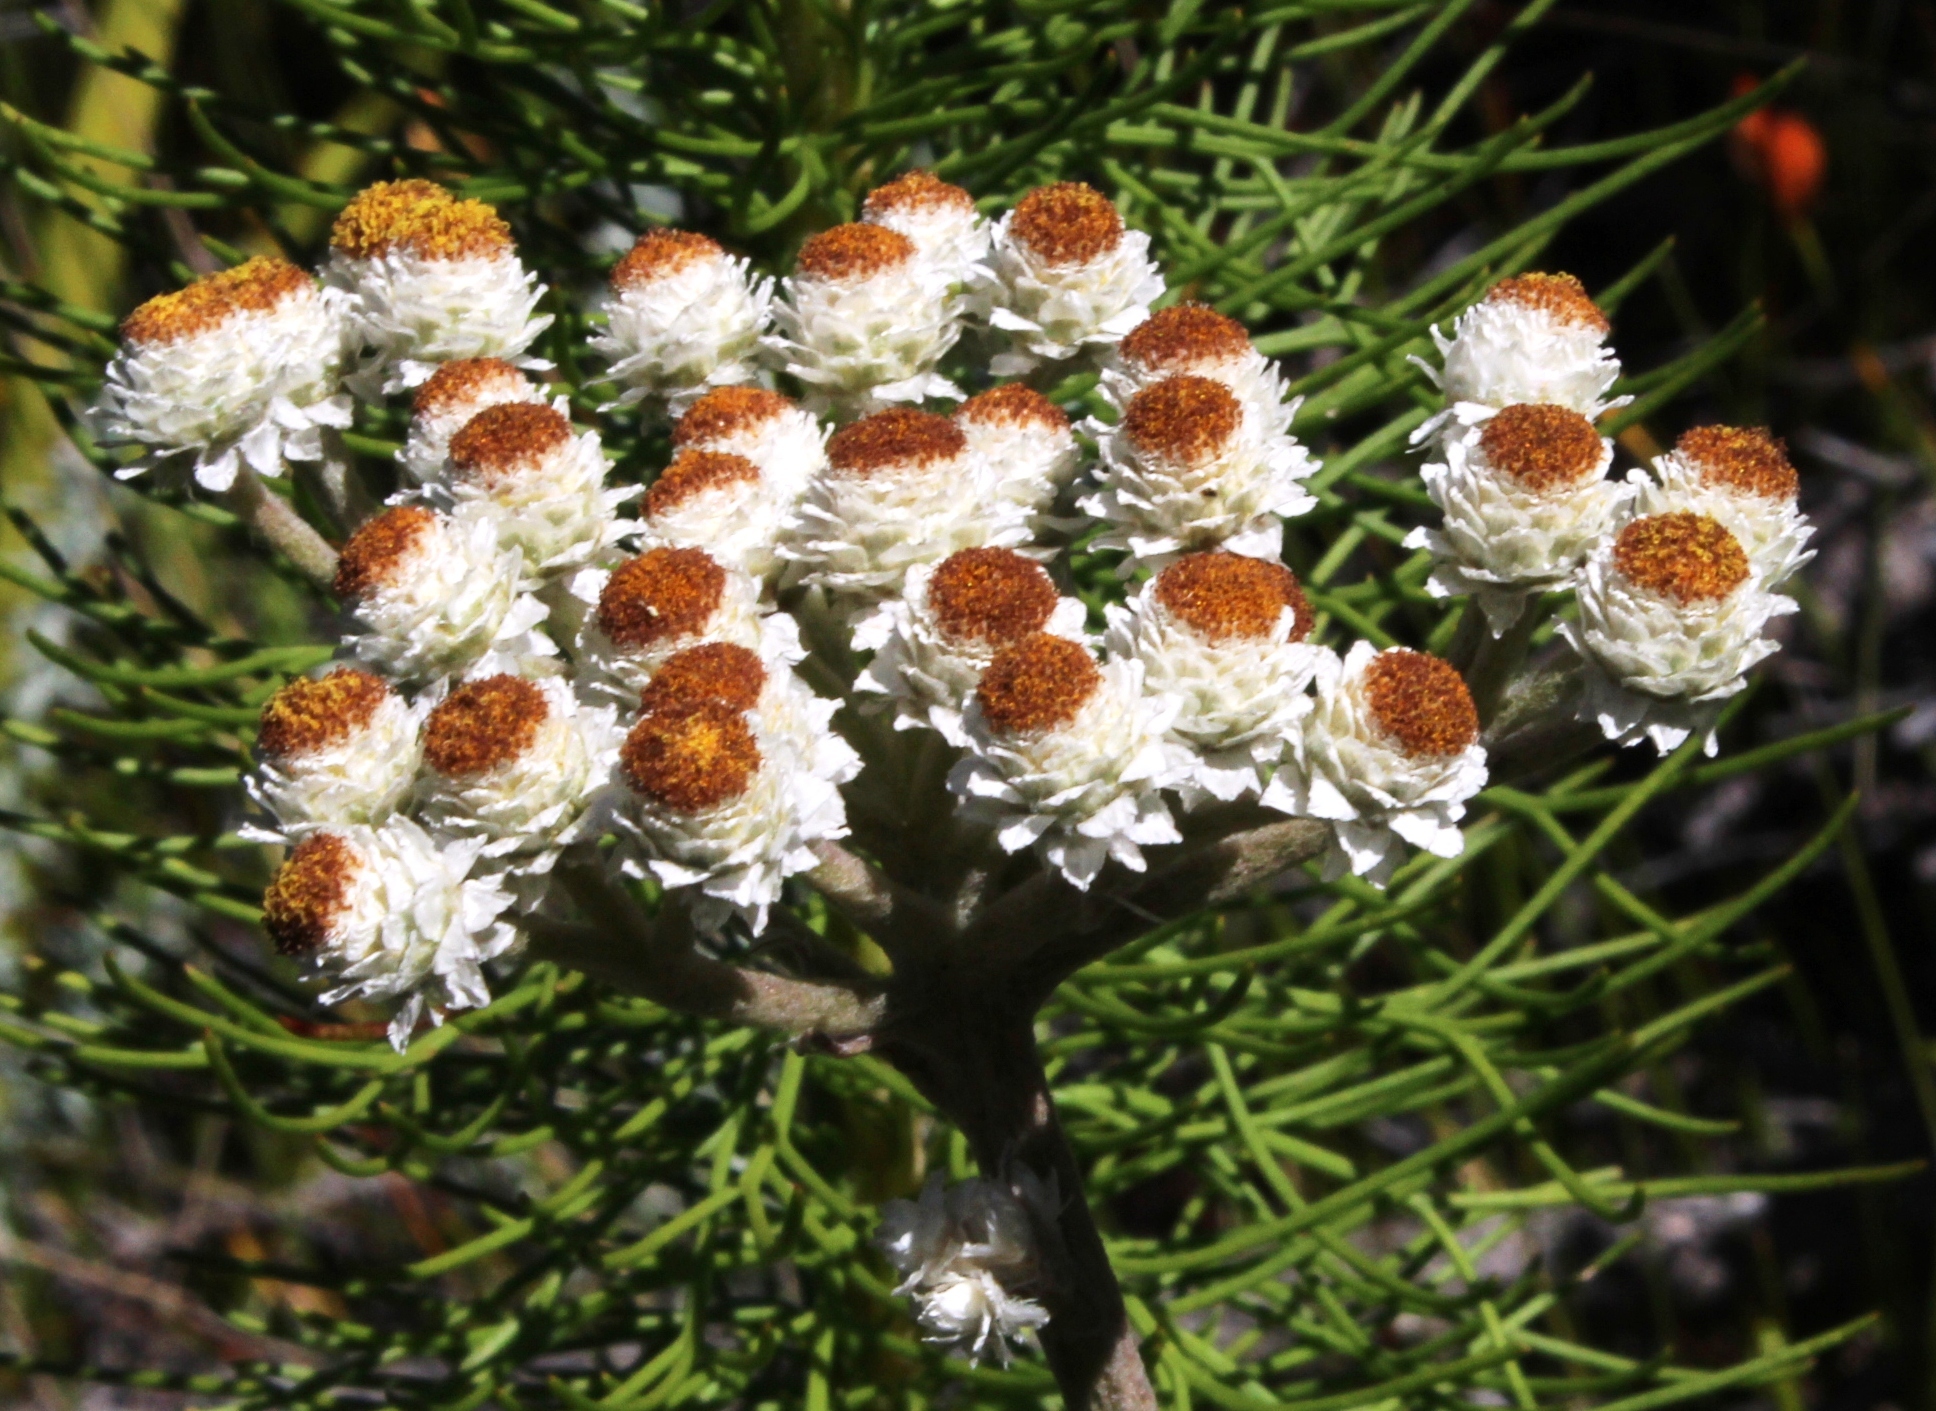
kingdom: Plantae
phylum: Tracheophyta
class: Magnoliopsida
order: Asterales
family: Asteraceae
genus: Helichrysum
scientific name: Helichrysum felinum
